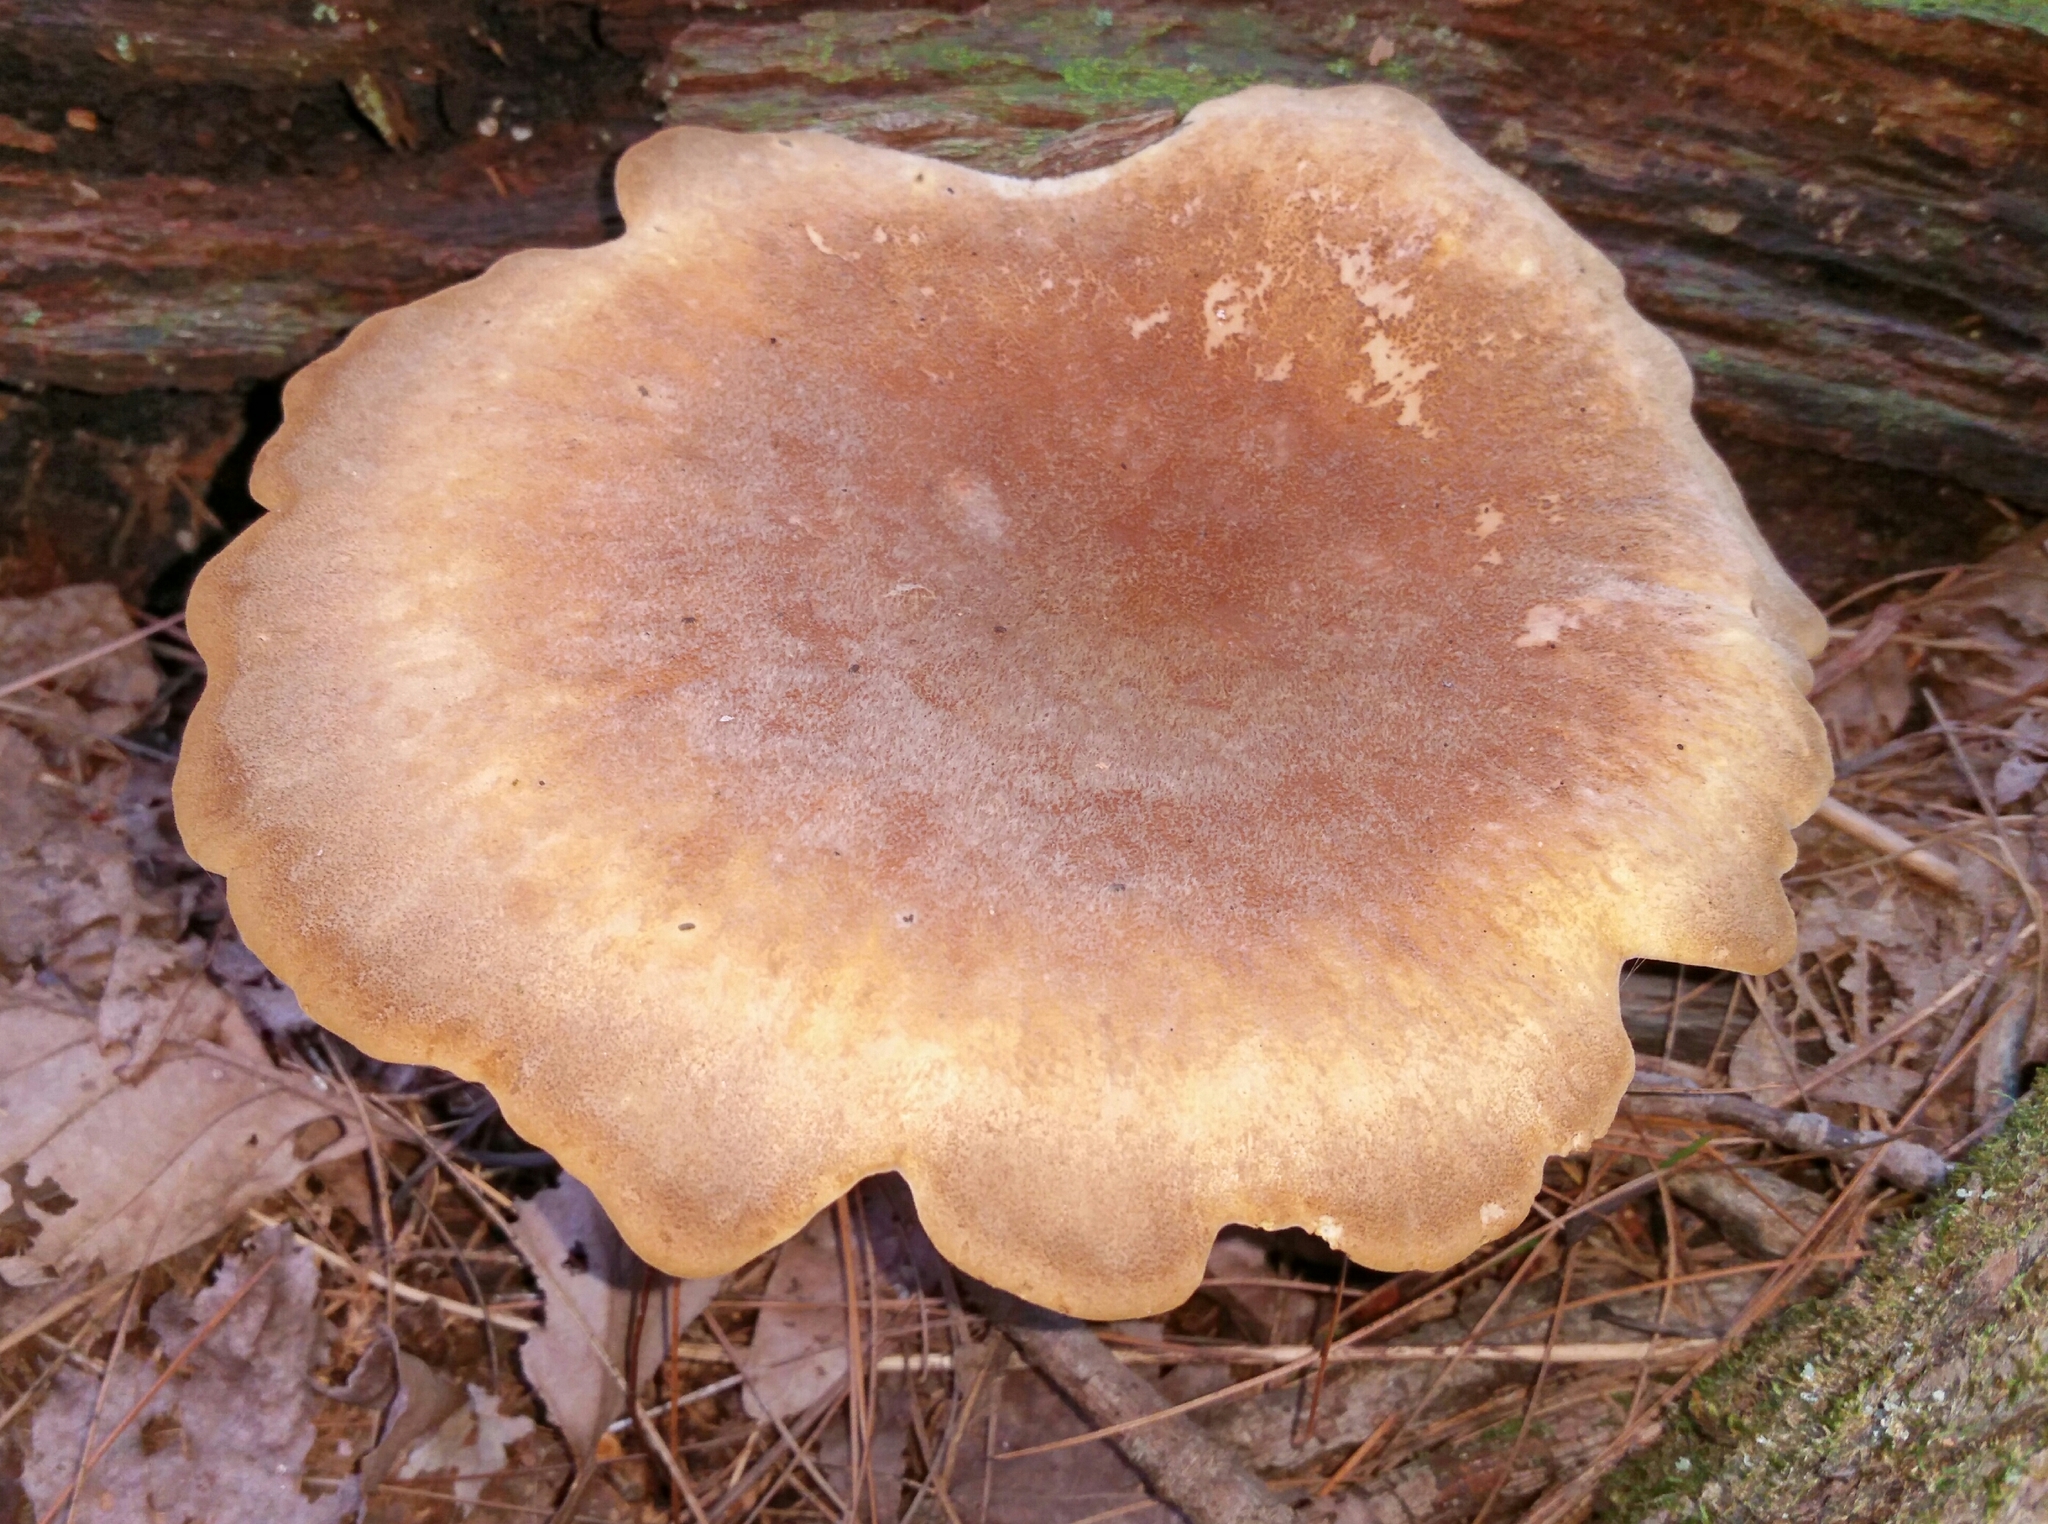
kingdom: Fungi
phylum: Basidiomycota
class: Agaricomycetes
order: Boletales
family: Tapinellaceae
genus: Tapinella
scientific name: Tapinella atrotomentosa
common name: Velvet rollrim
